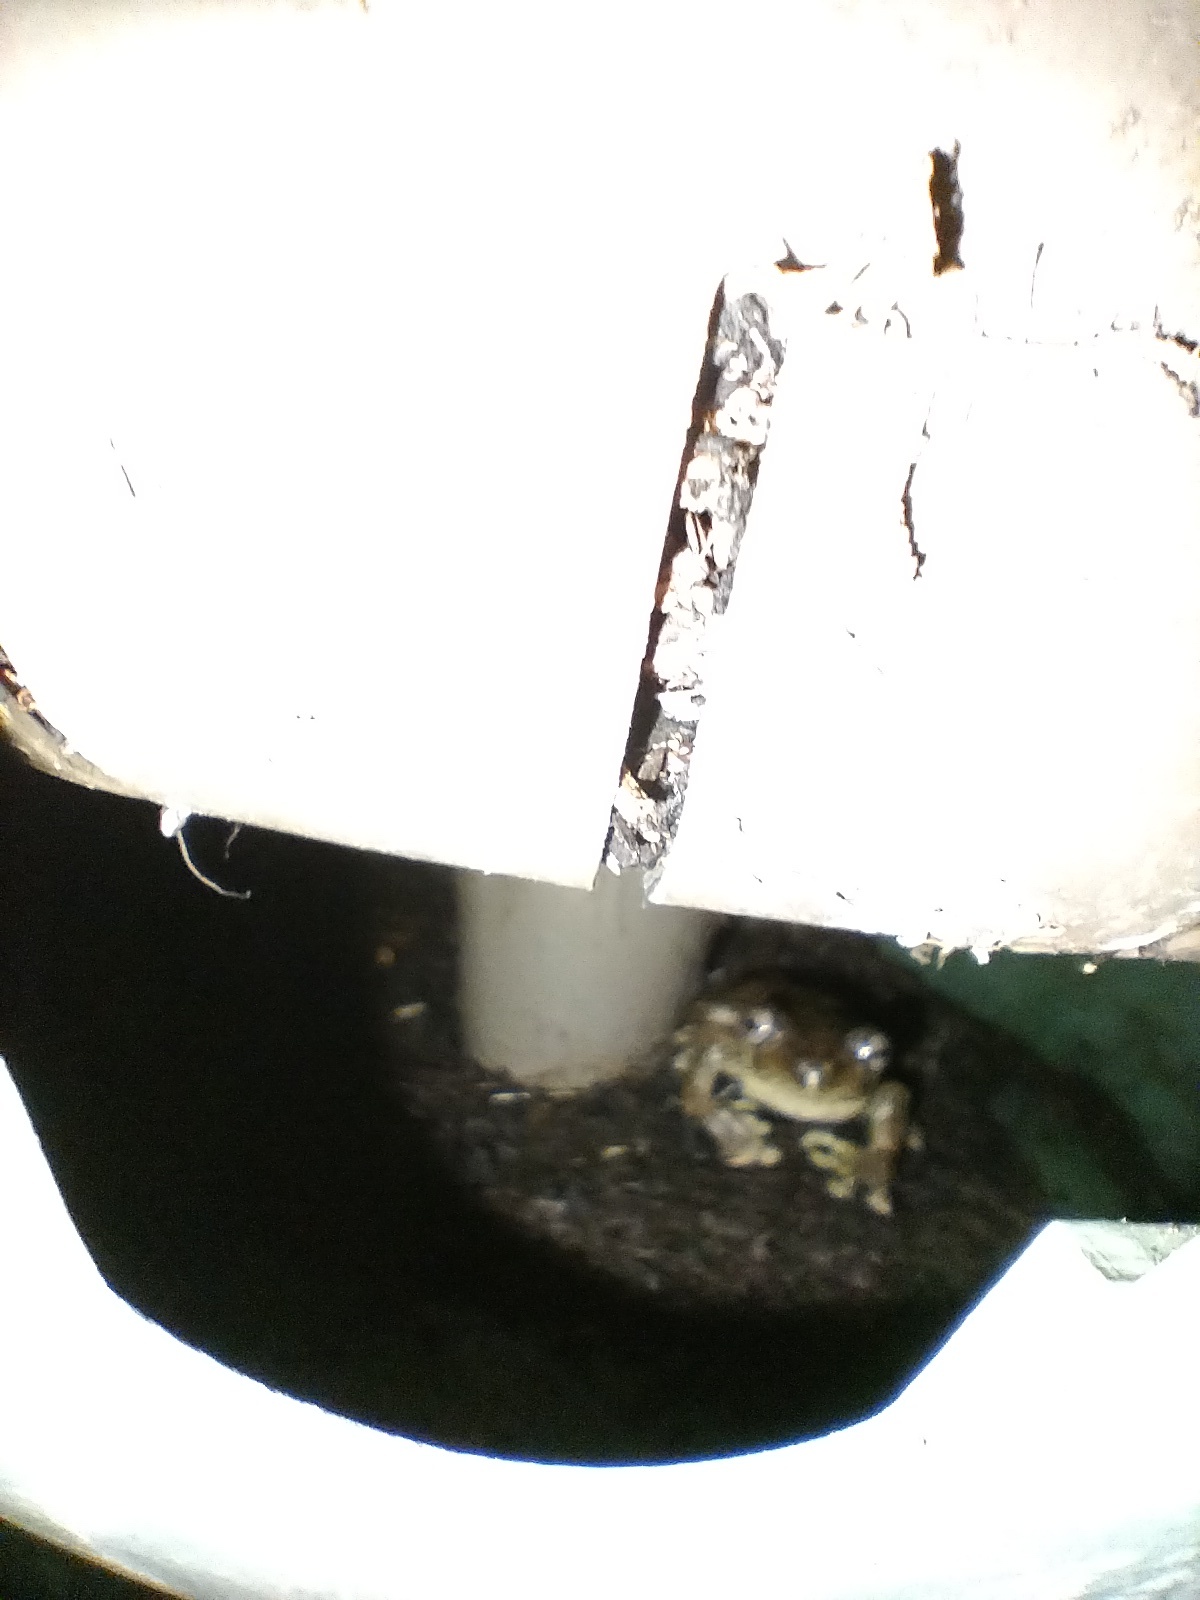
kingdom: Animalia
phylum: Chordata
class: Amphibia
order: Anura
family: Pelodryadidae
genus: Litoria
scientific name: Litoria peronii
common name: Emerald spotted treefrog
